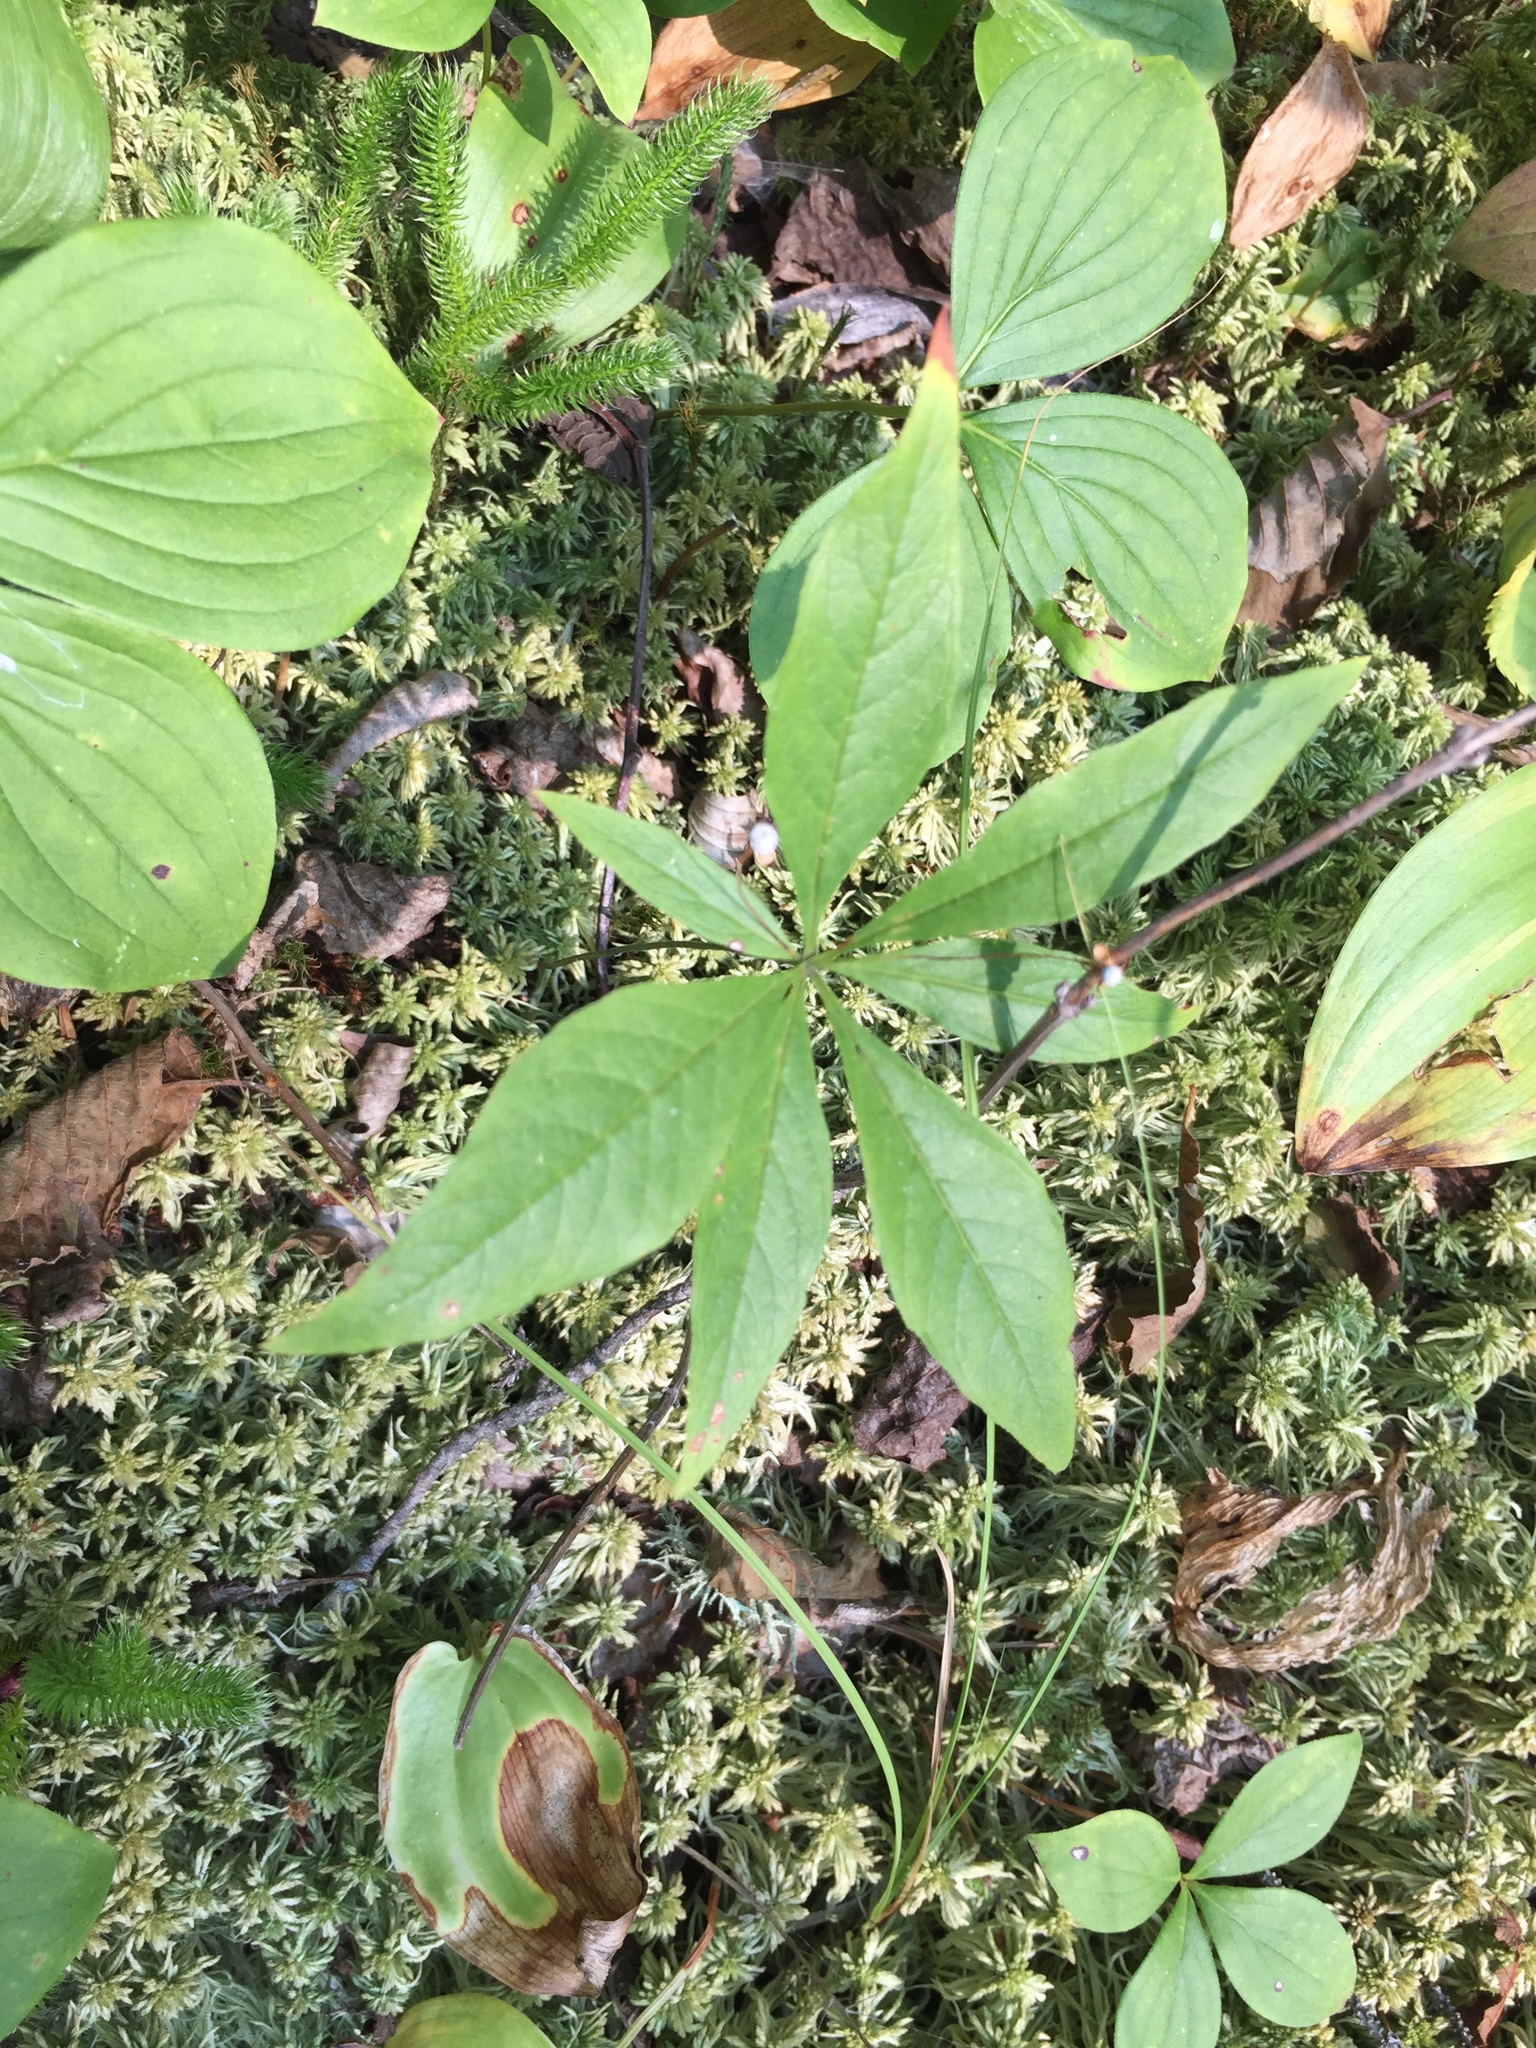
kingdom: Plantae
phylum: Tracheophyta
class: Magnoliopsida
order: Ericales
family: Primulaceae
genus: Lysimachia
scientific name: Lysimachia borealis
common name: American starflower
